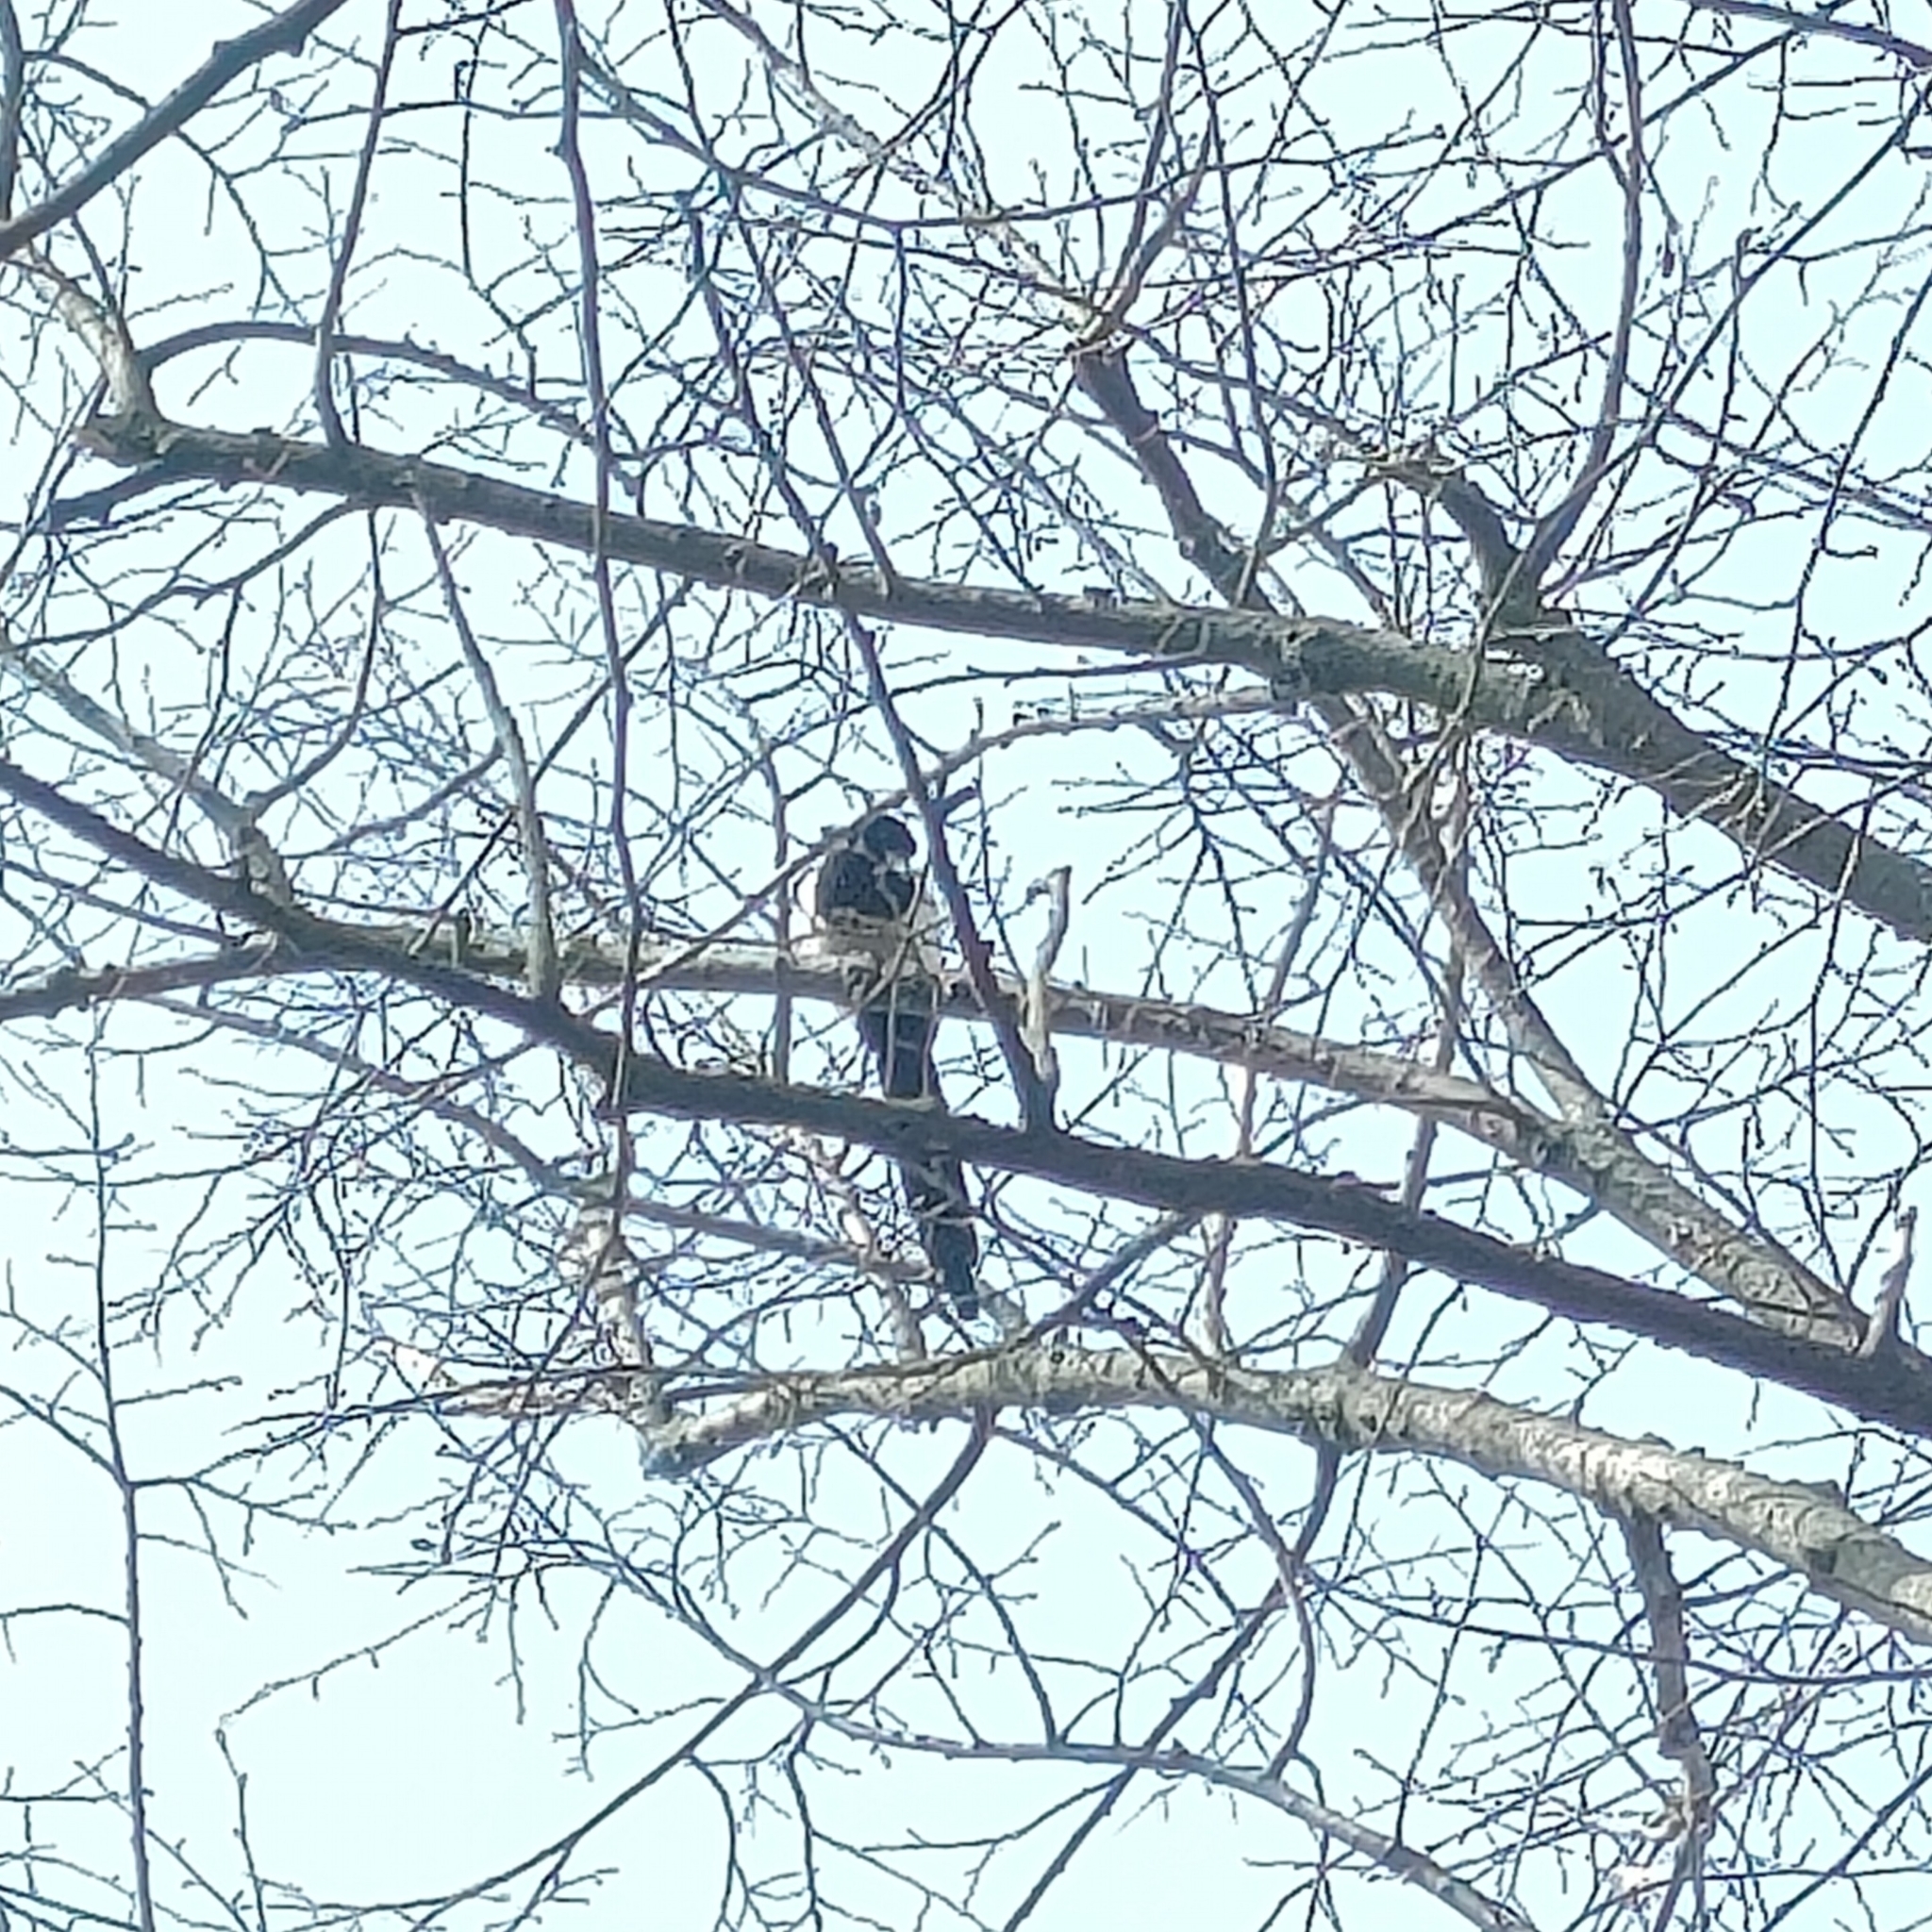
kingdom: Animalia
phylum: Chordata
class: Aves
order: Passeriformes
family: Corvidae
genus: Pica
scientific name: Pica pica
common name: Eurasian magpie
